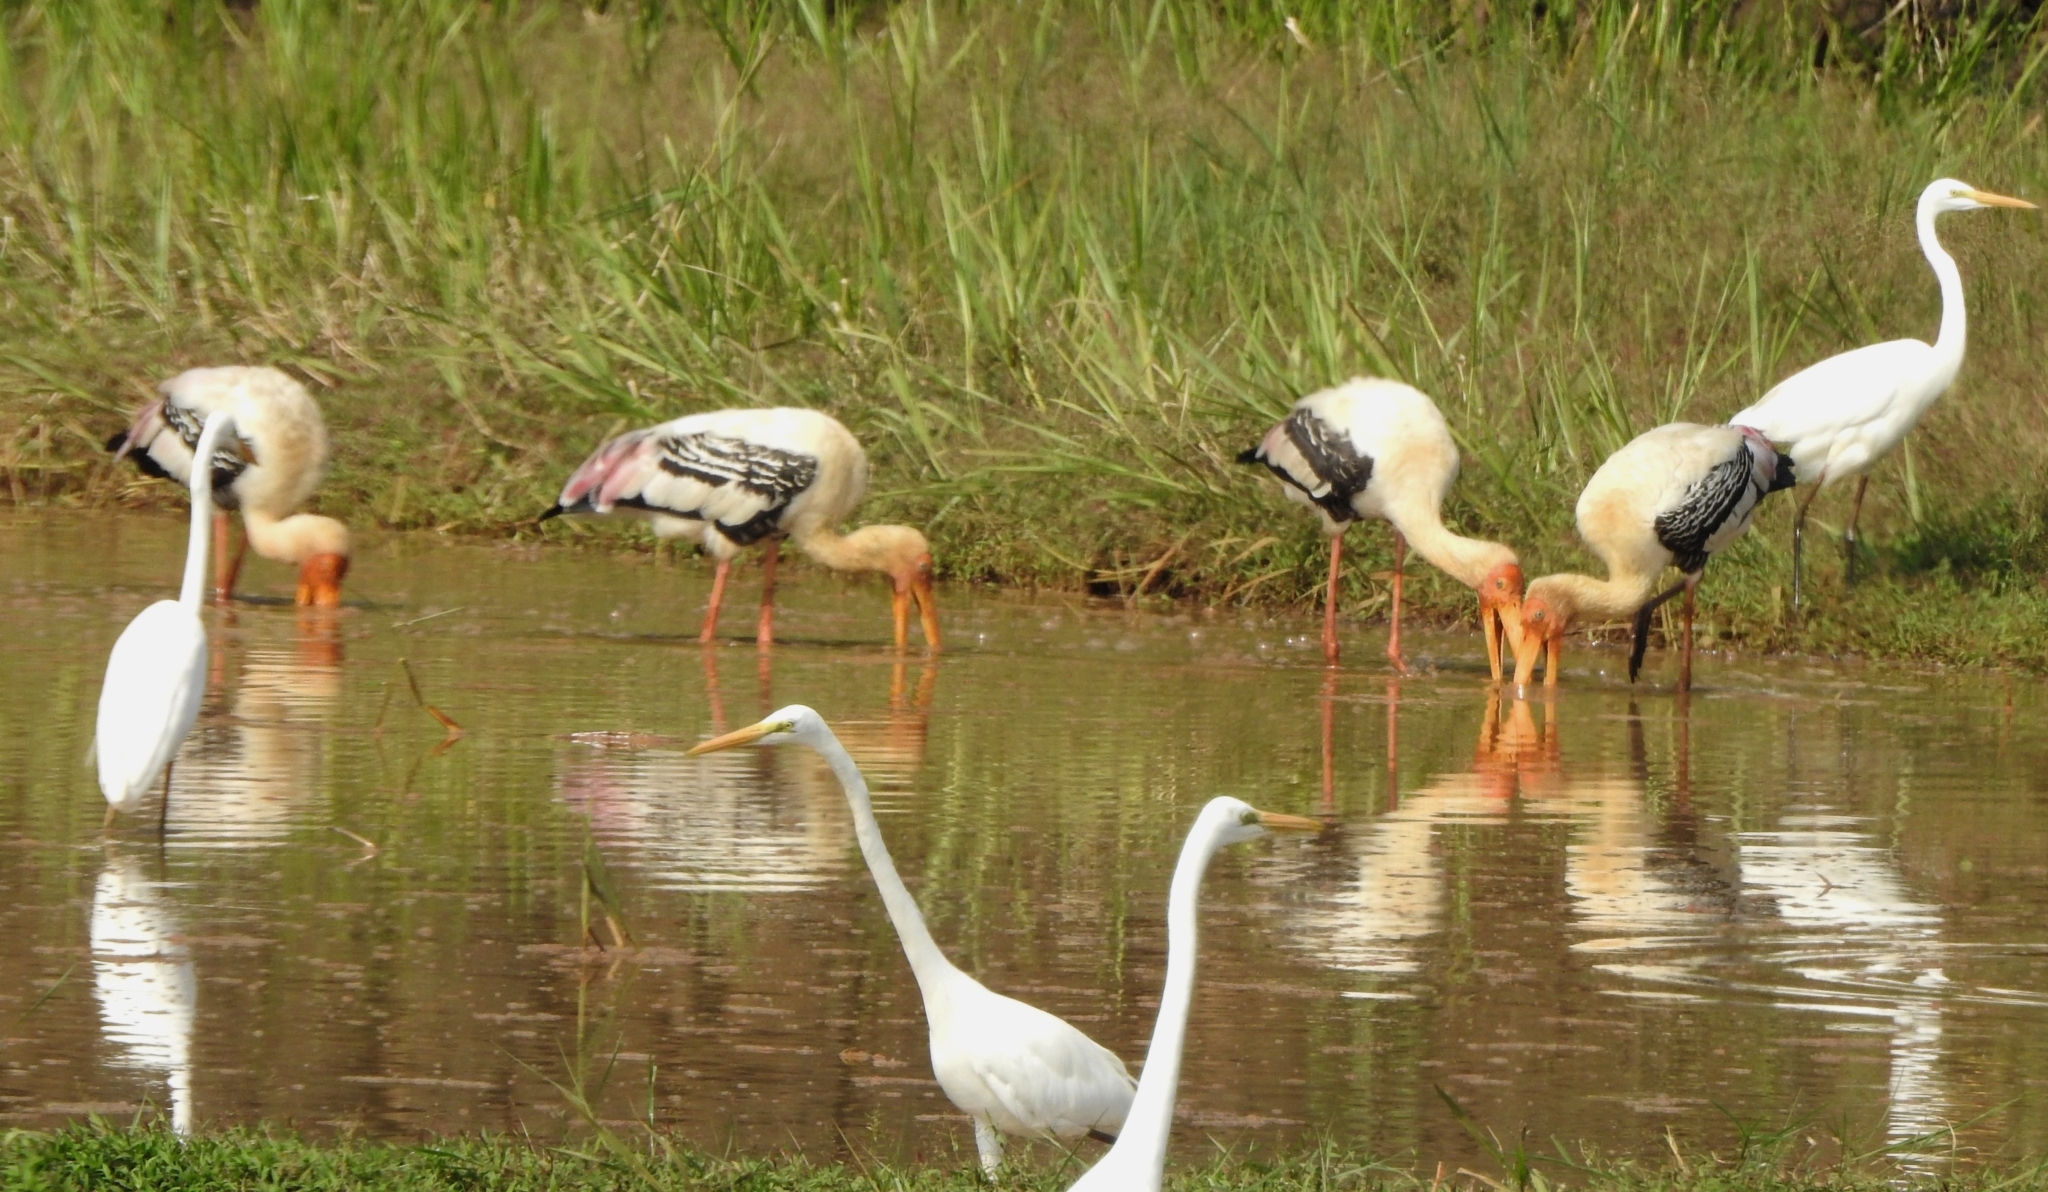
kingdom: Animalia
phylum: Chordata
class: Aves
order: Pelecaniformes
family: Ardeidae
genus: Ardea
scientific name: Ardea alba
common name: Great egret
